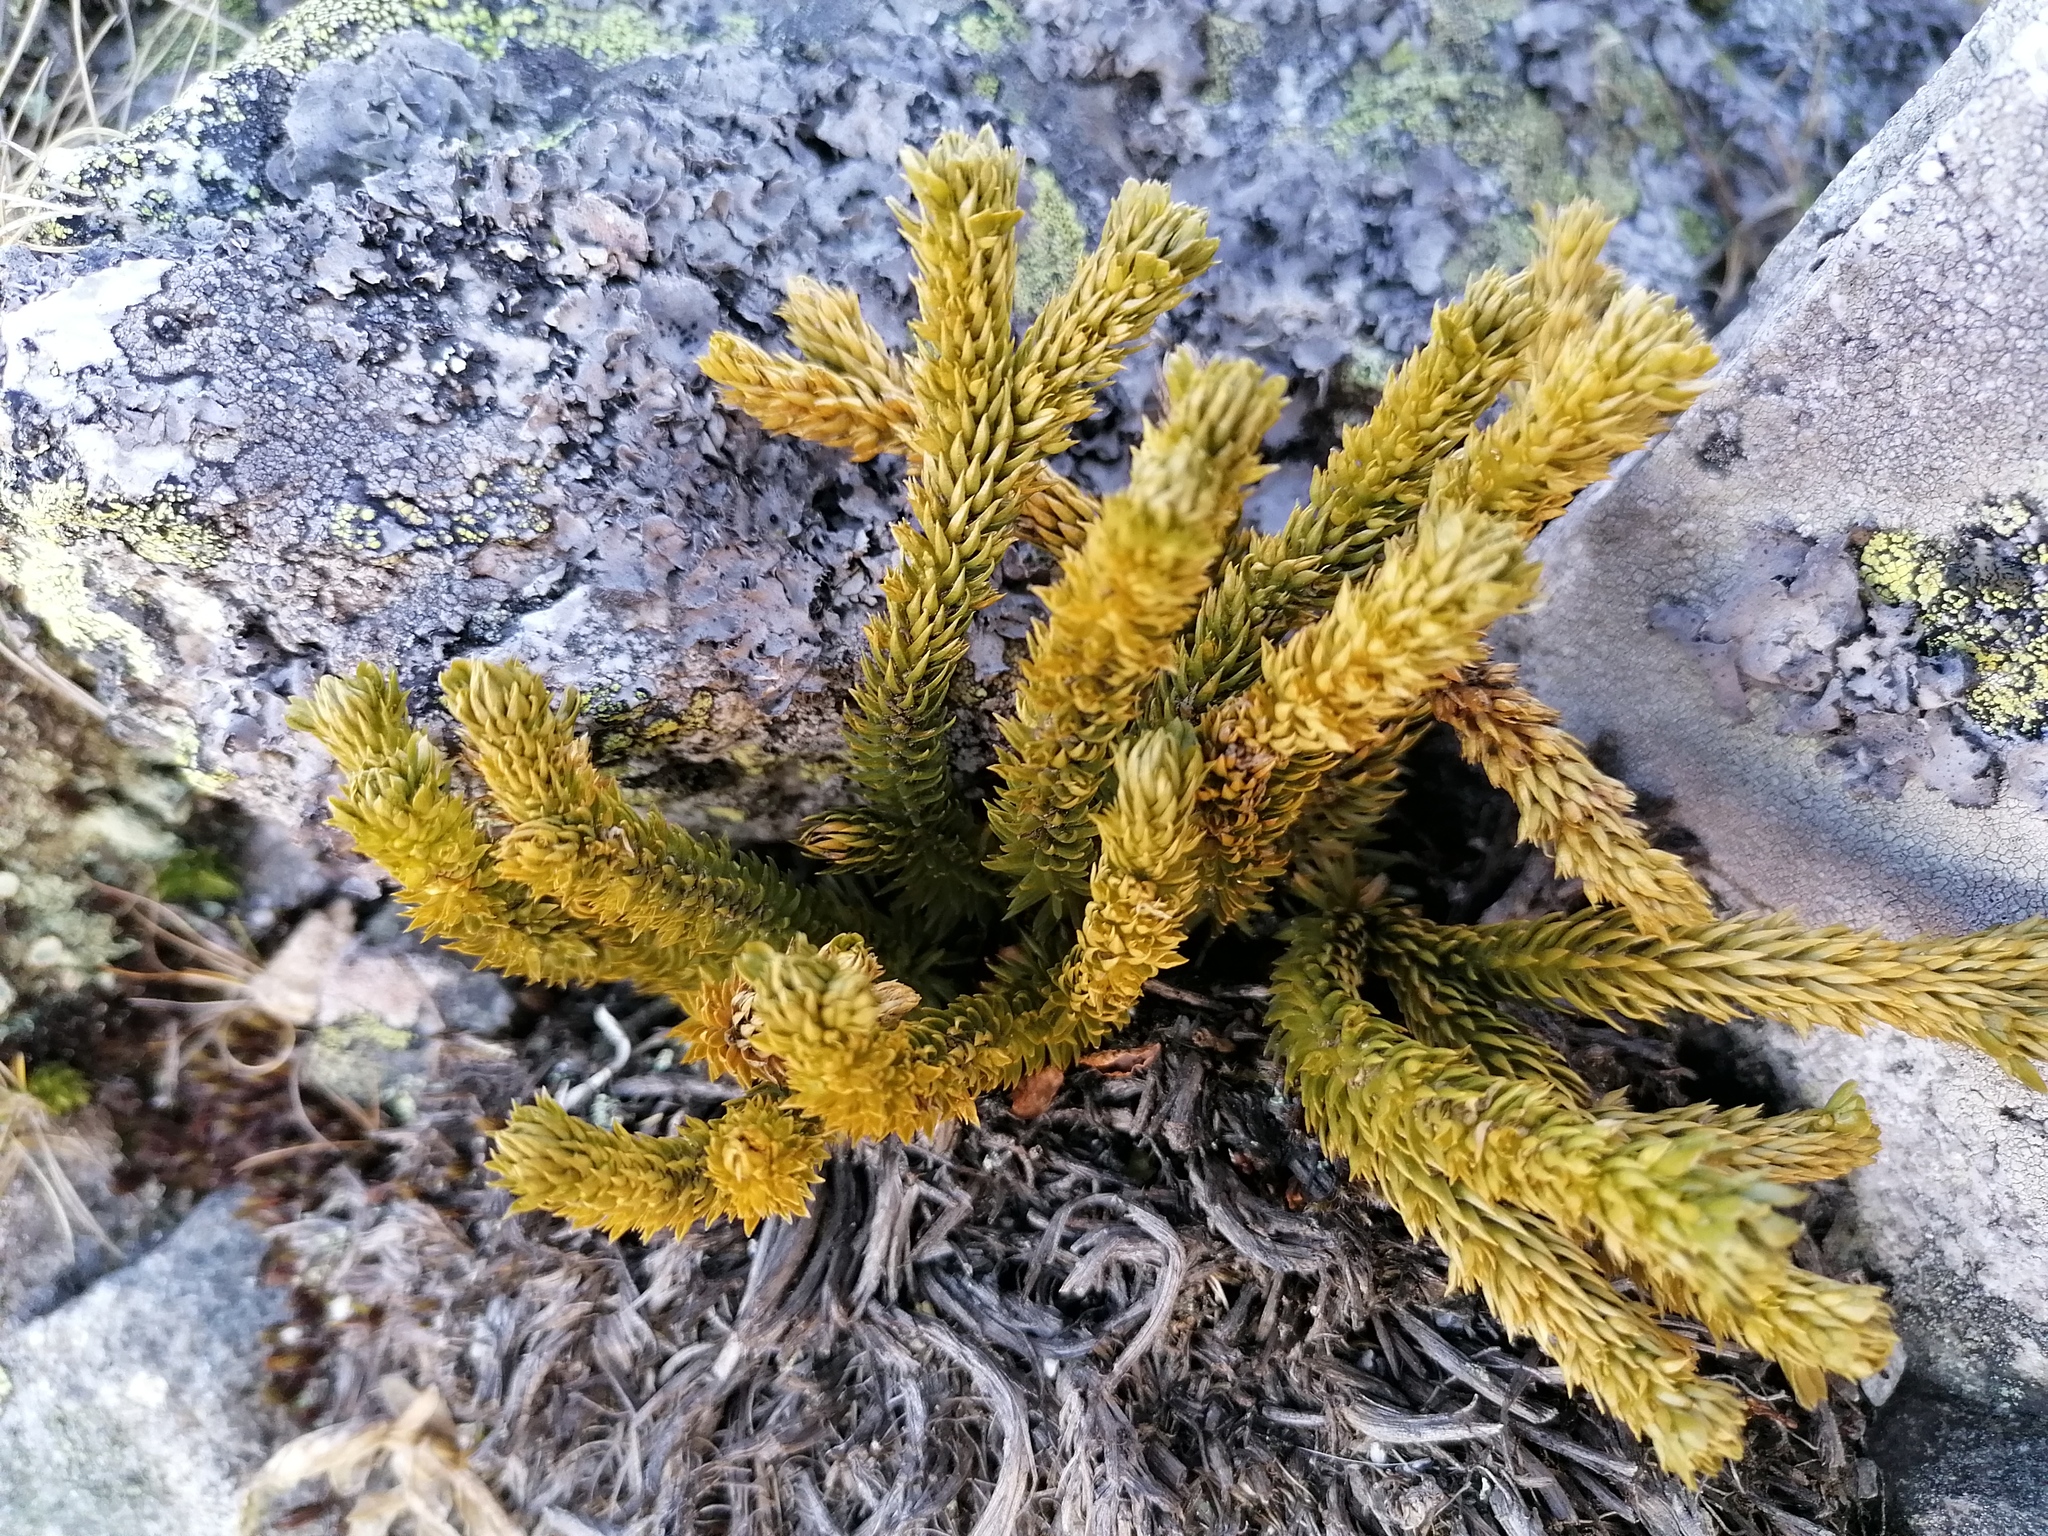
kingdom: Plantae
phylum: Tracheophyta
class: Lycopodiopsida
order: Lycopodiales
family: Lycopodiaceae
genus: Huperzia
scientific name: Huperzia selago
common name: Northern firmoss
